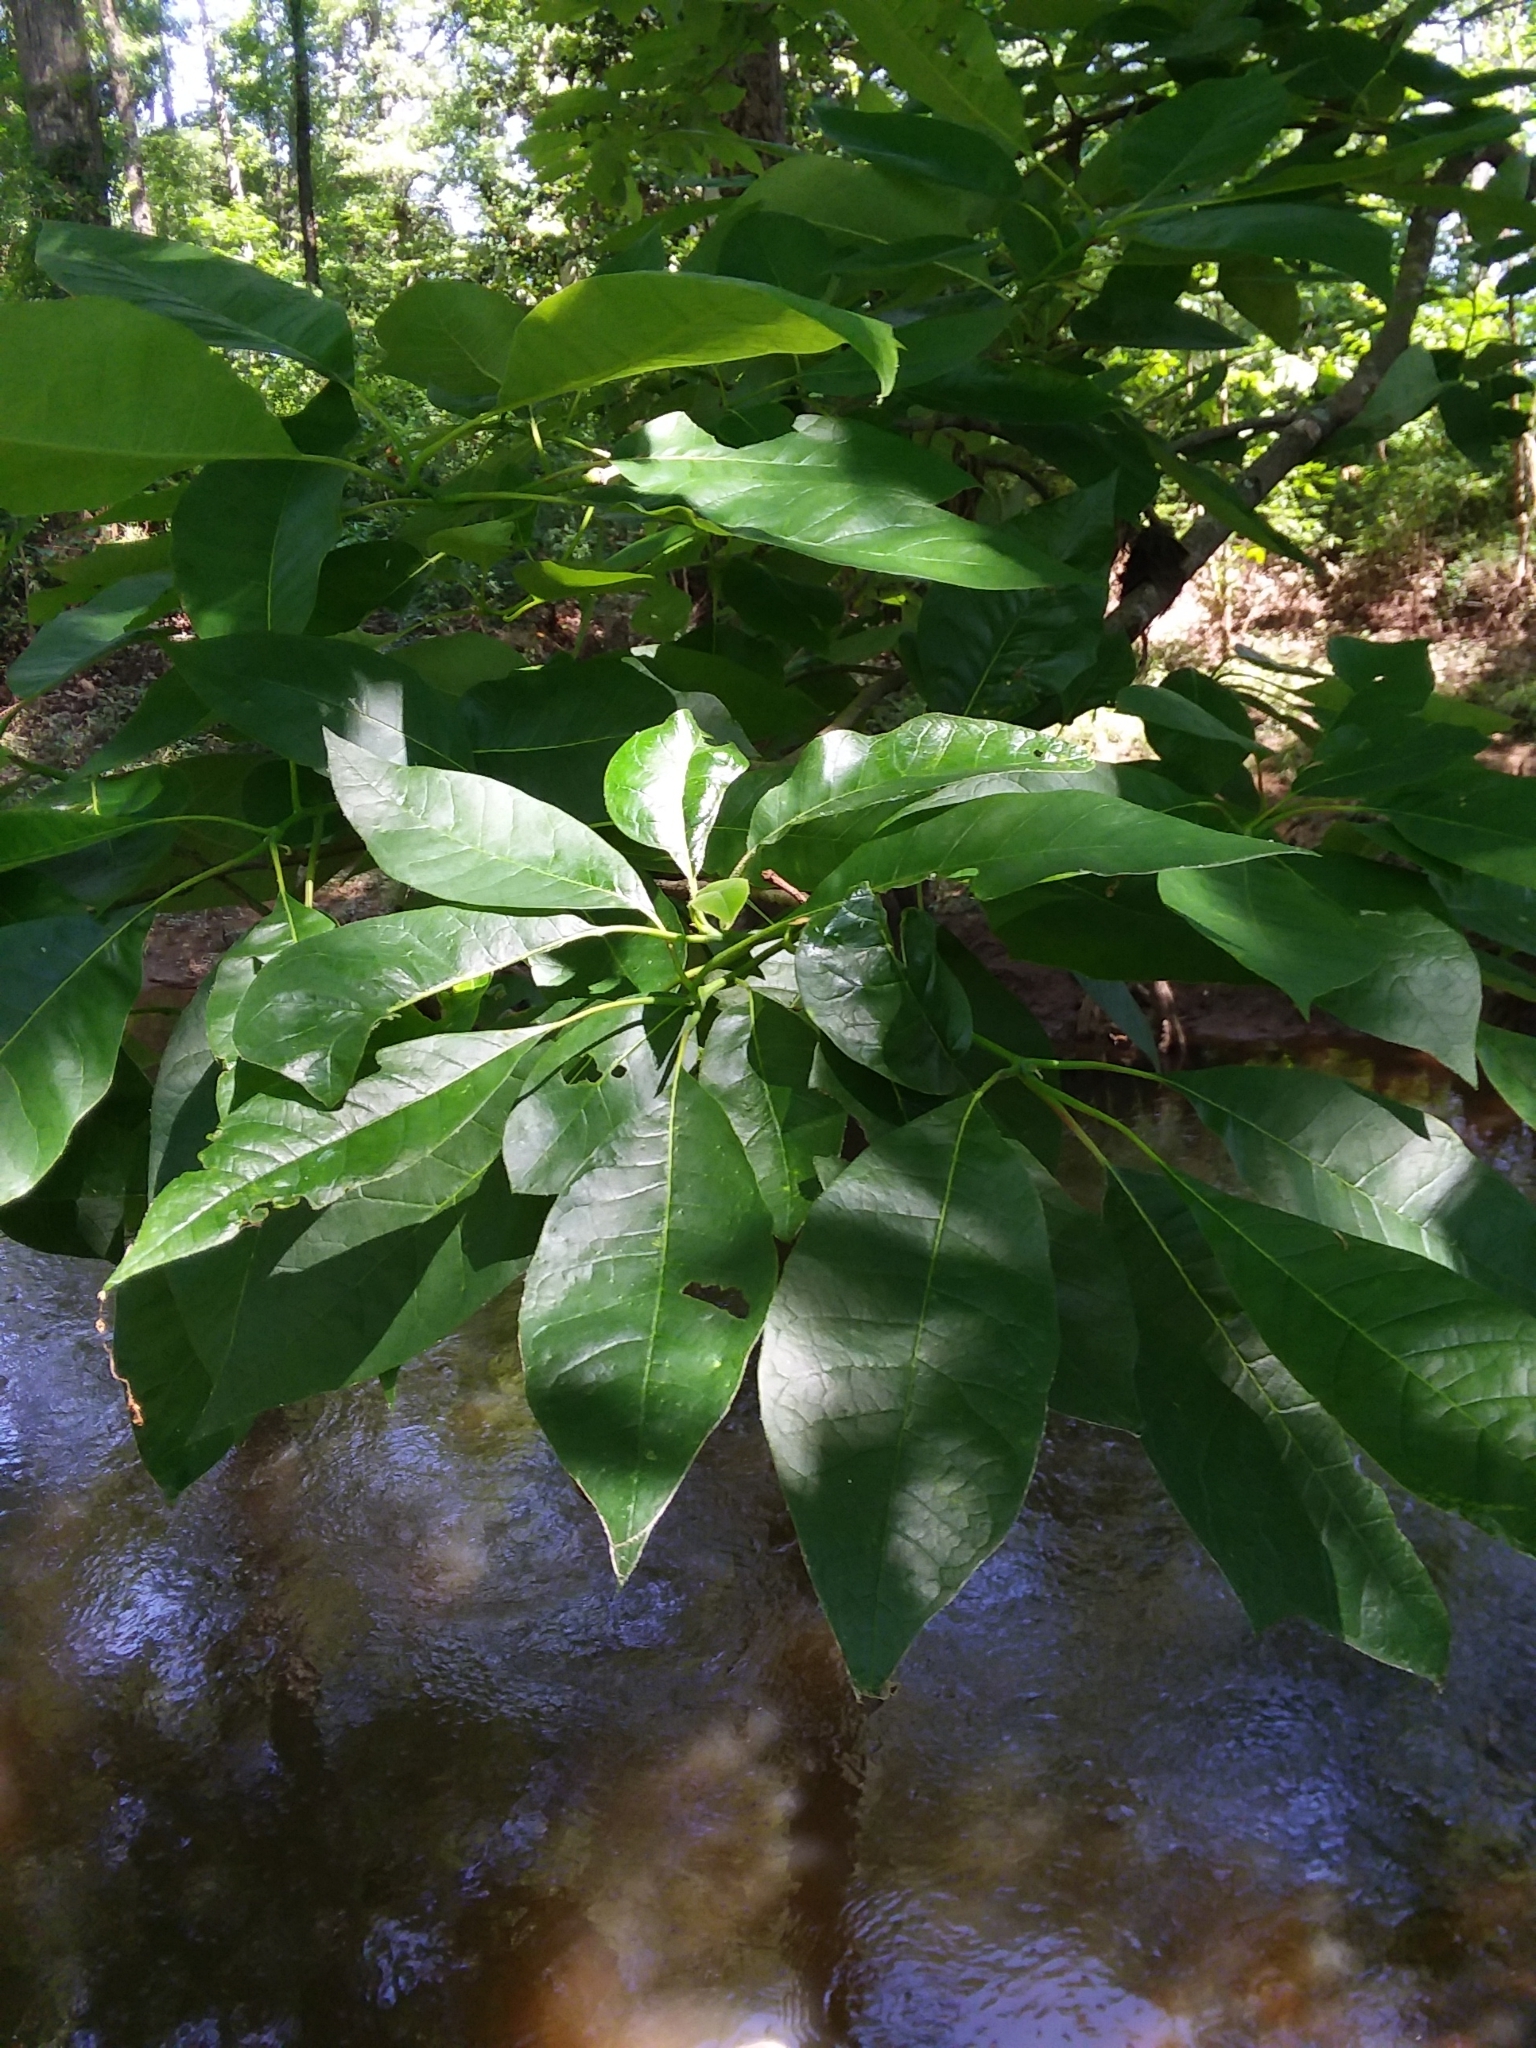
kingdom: Plantae
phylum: Tracheophyta
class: Magnoliopsida
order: Cornales
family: Nyssaceae
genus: Nyssa
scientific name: Nyssa aquatica
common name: Swamp tupelo
